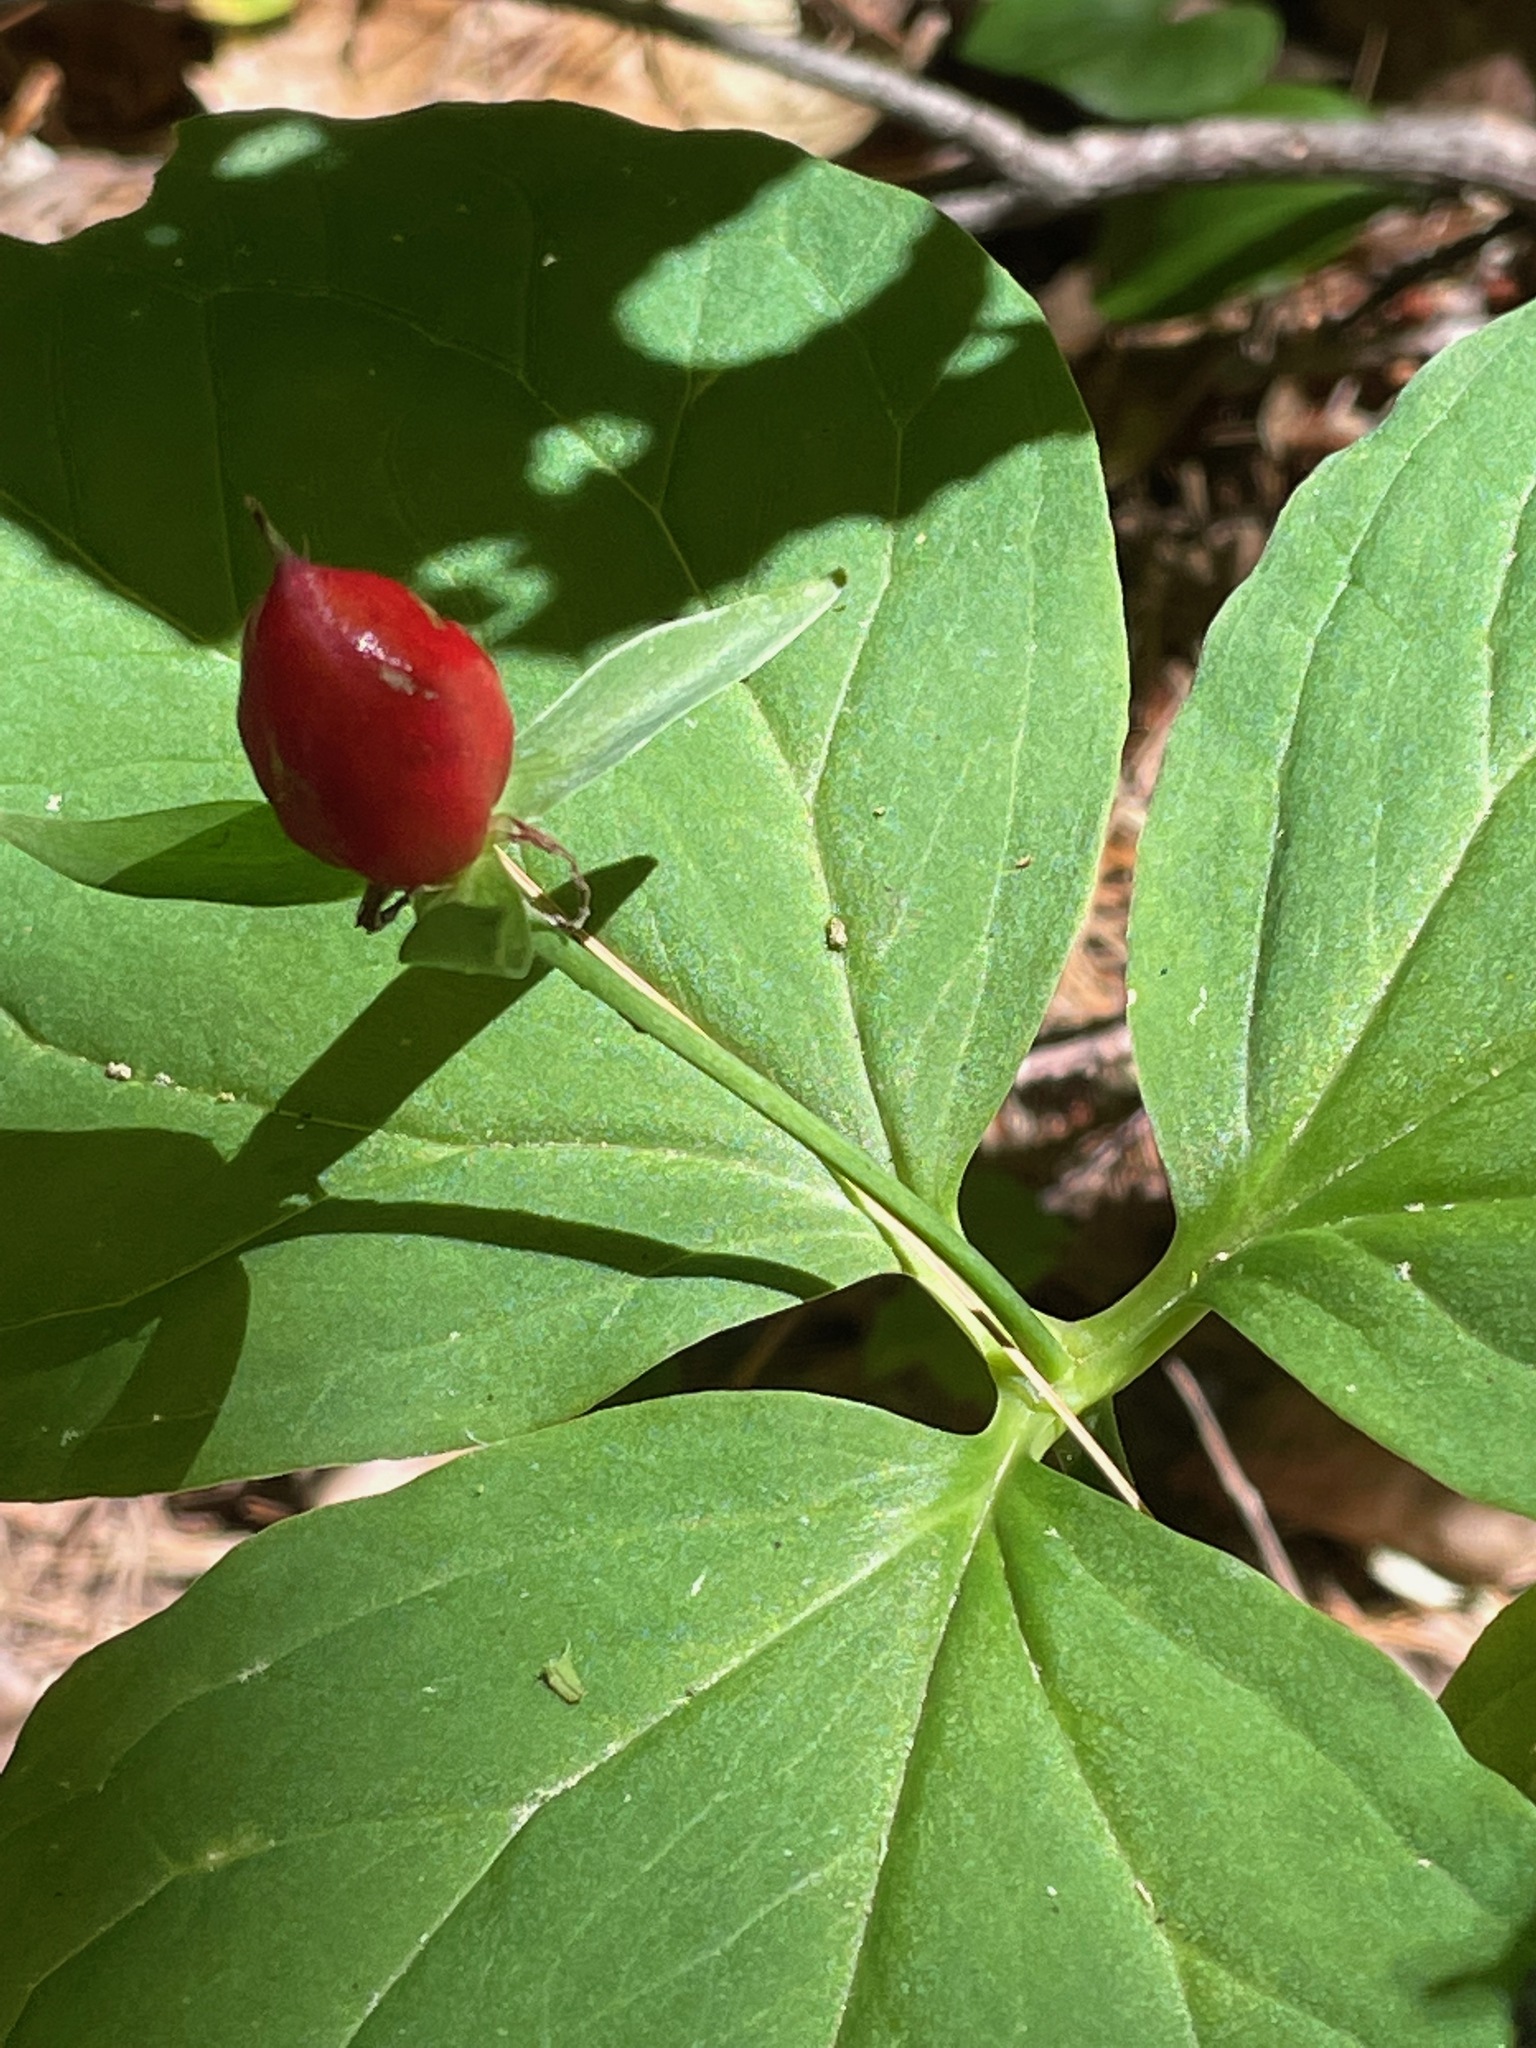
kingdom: Plantae
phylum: Tracheophyta
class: Liliopsida
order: Liliales
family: Melanthiaceae
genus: Trillium
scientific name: Trillium undulatum
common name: Paint trillium
